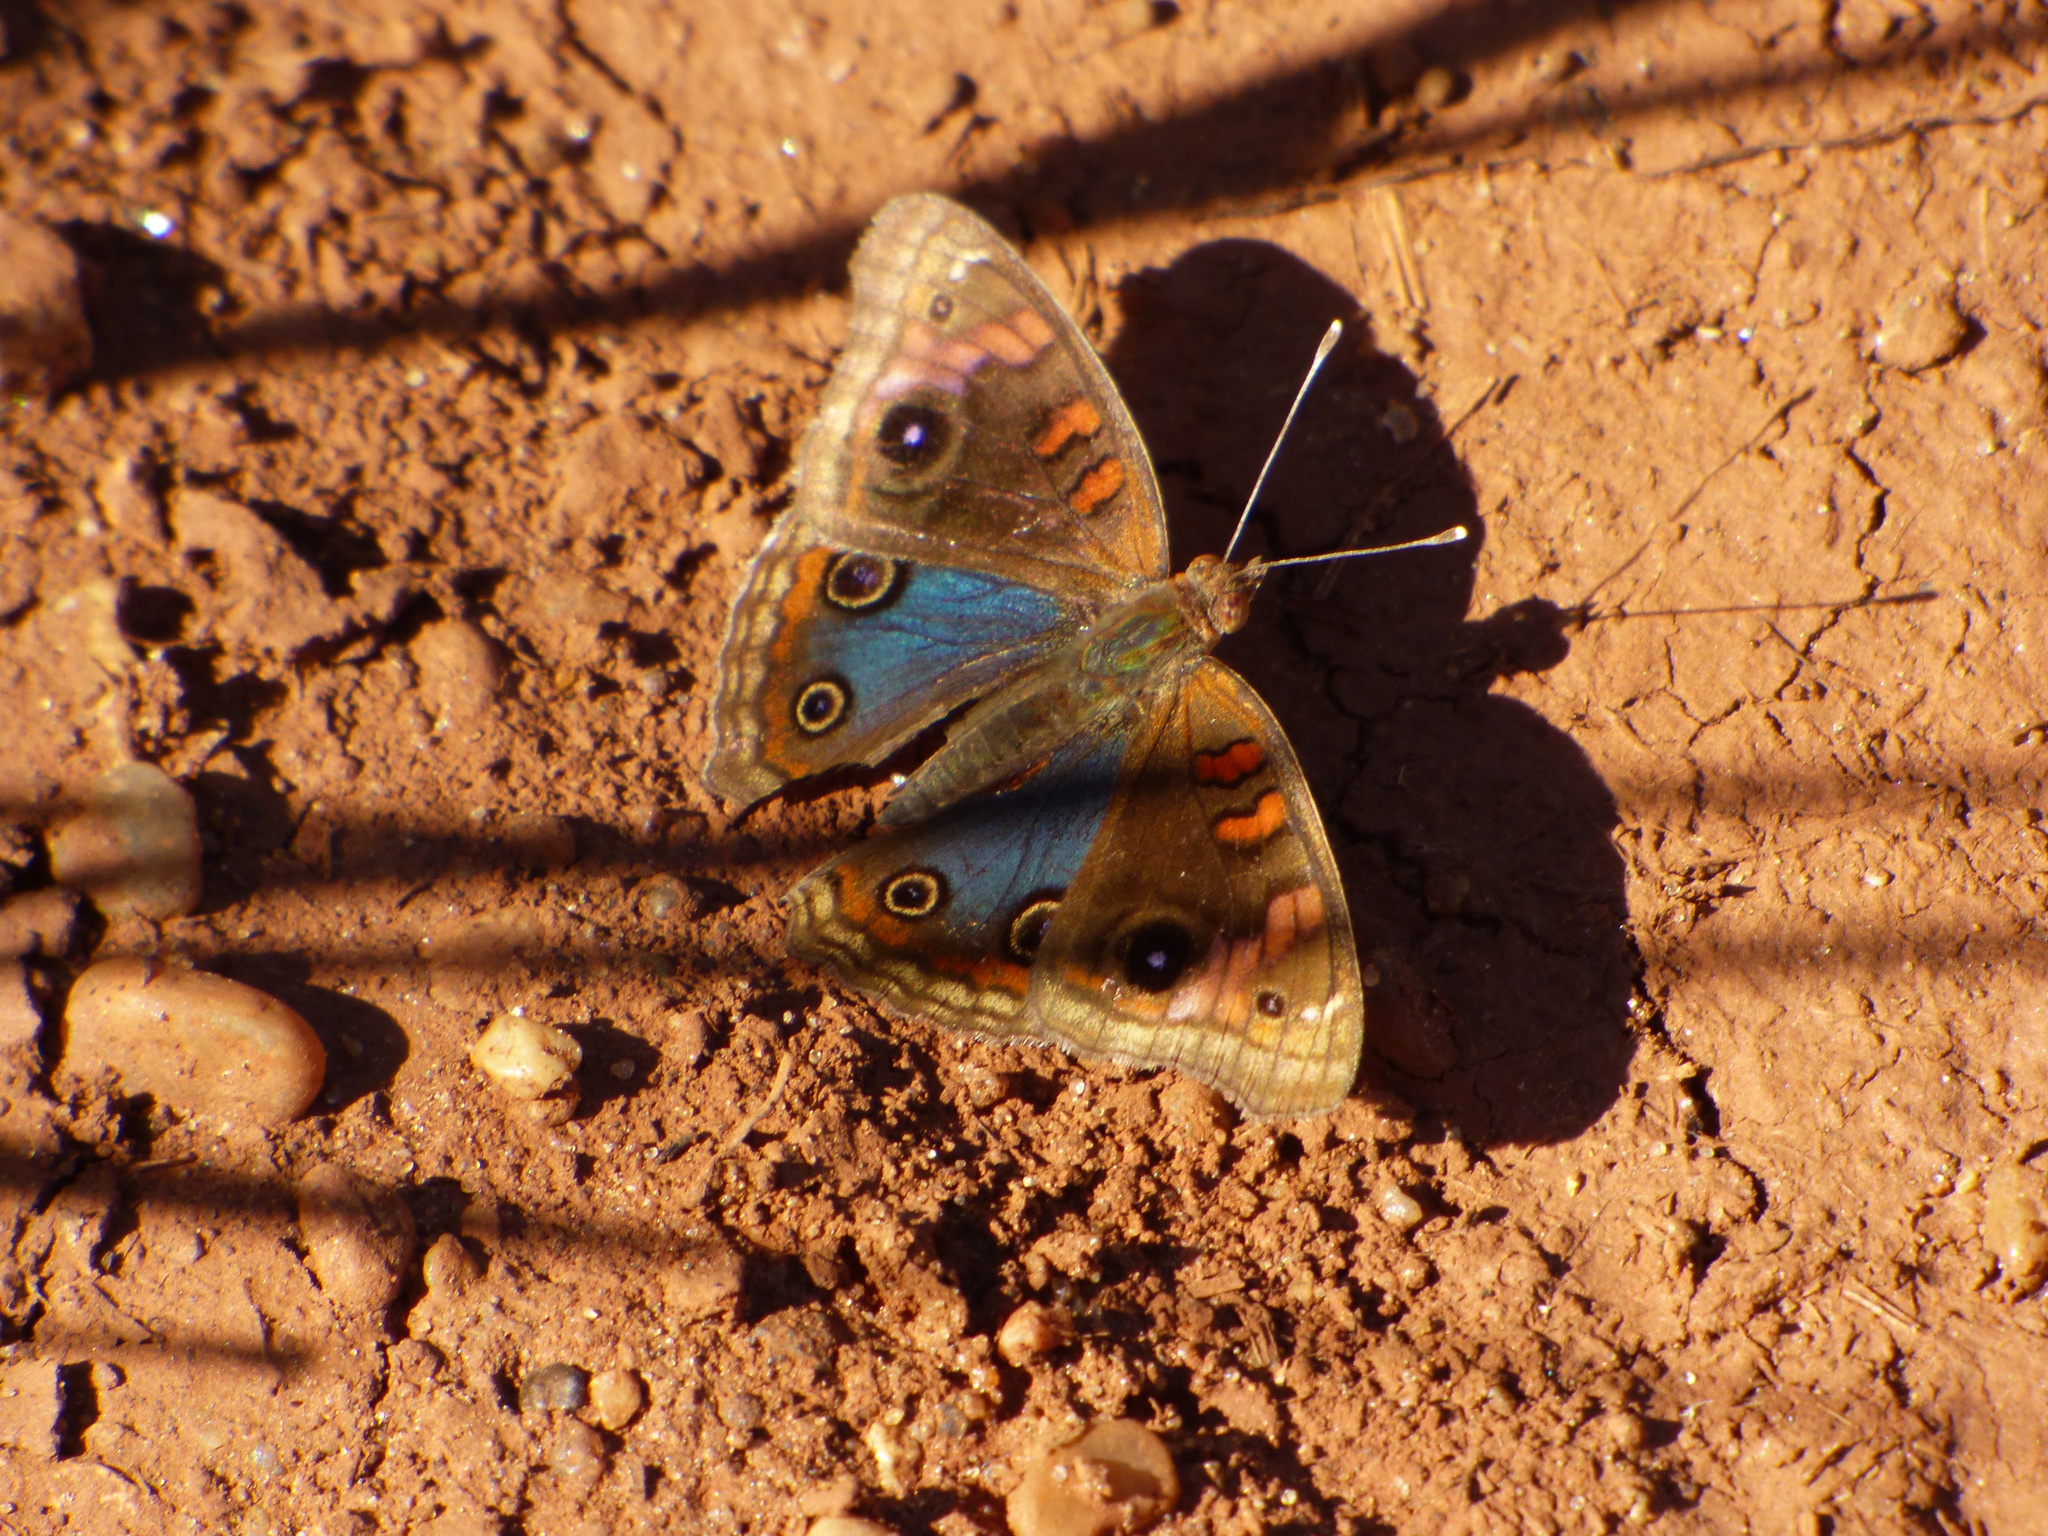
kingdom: Animalia
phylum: Arthropoda
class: Insecta
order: Lepidoptera
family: Nymphalidae
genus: Junonia
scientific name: Junonia lavinia
